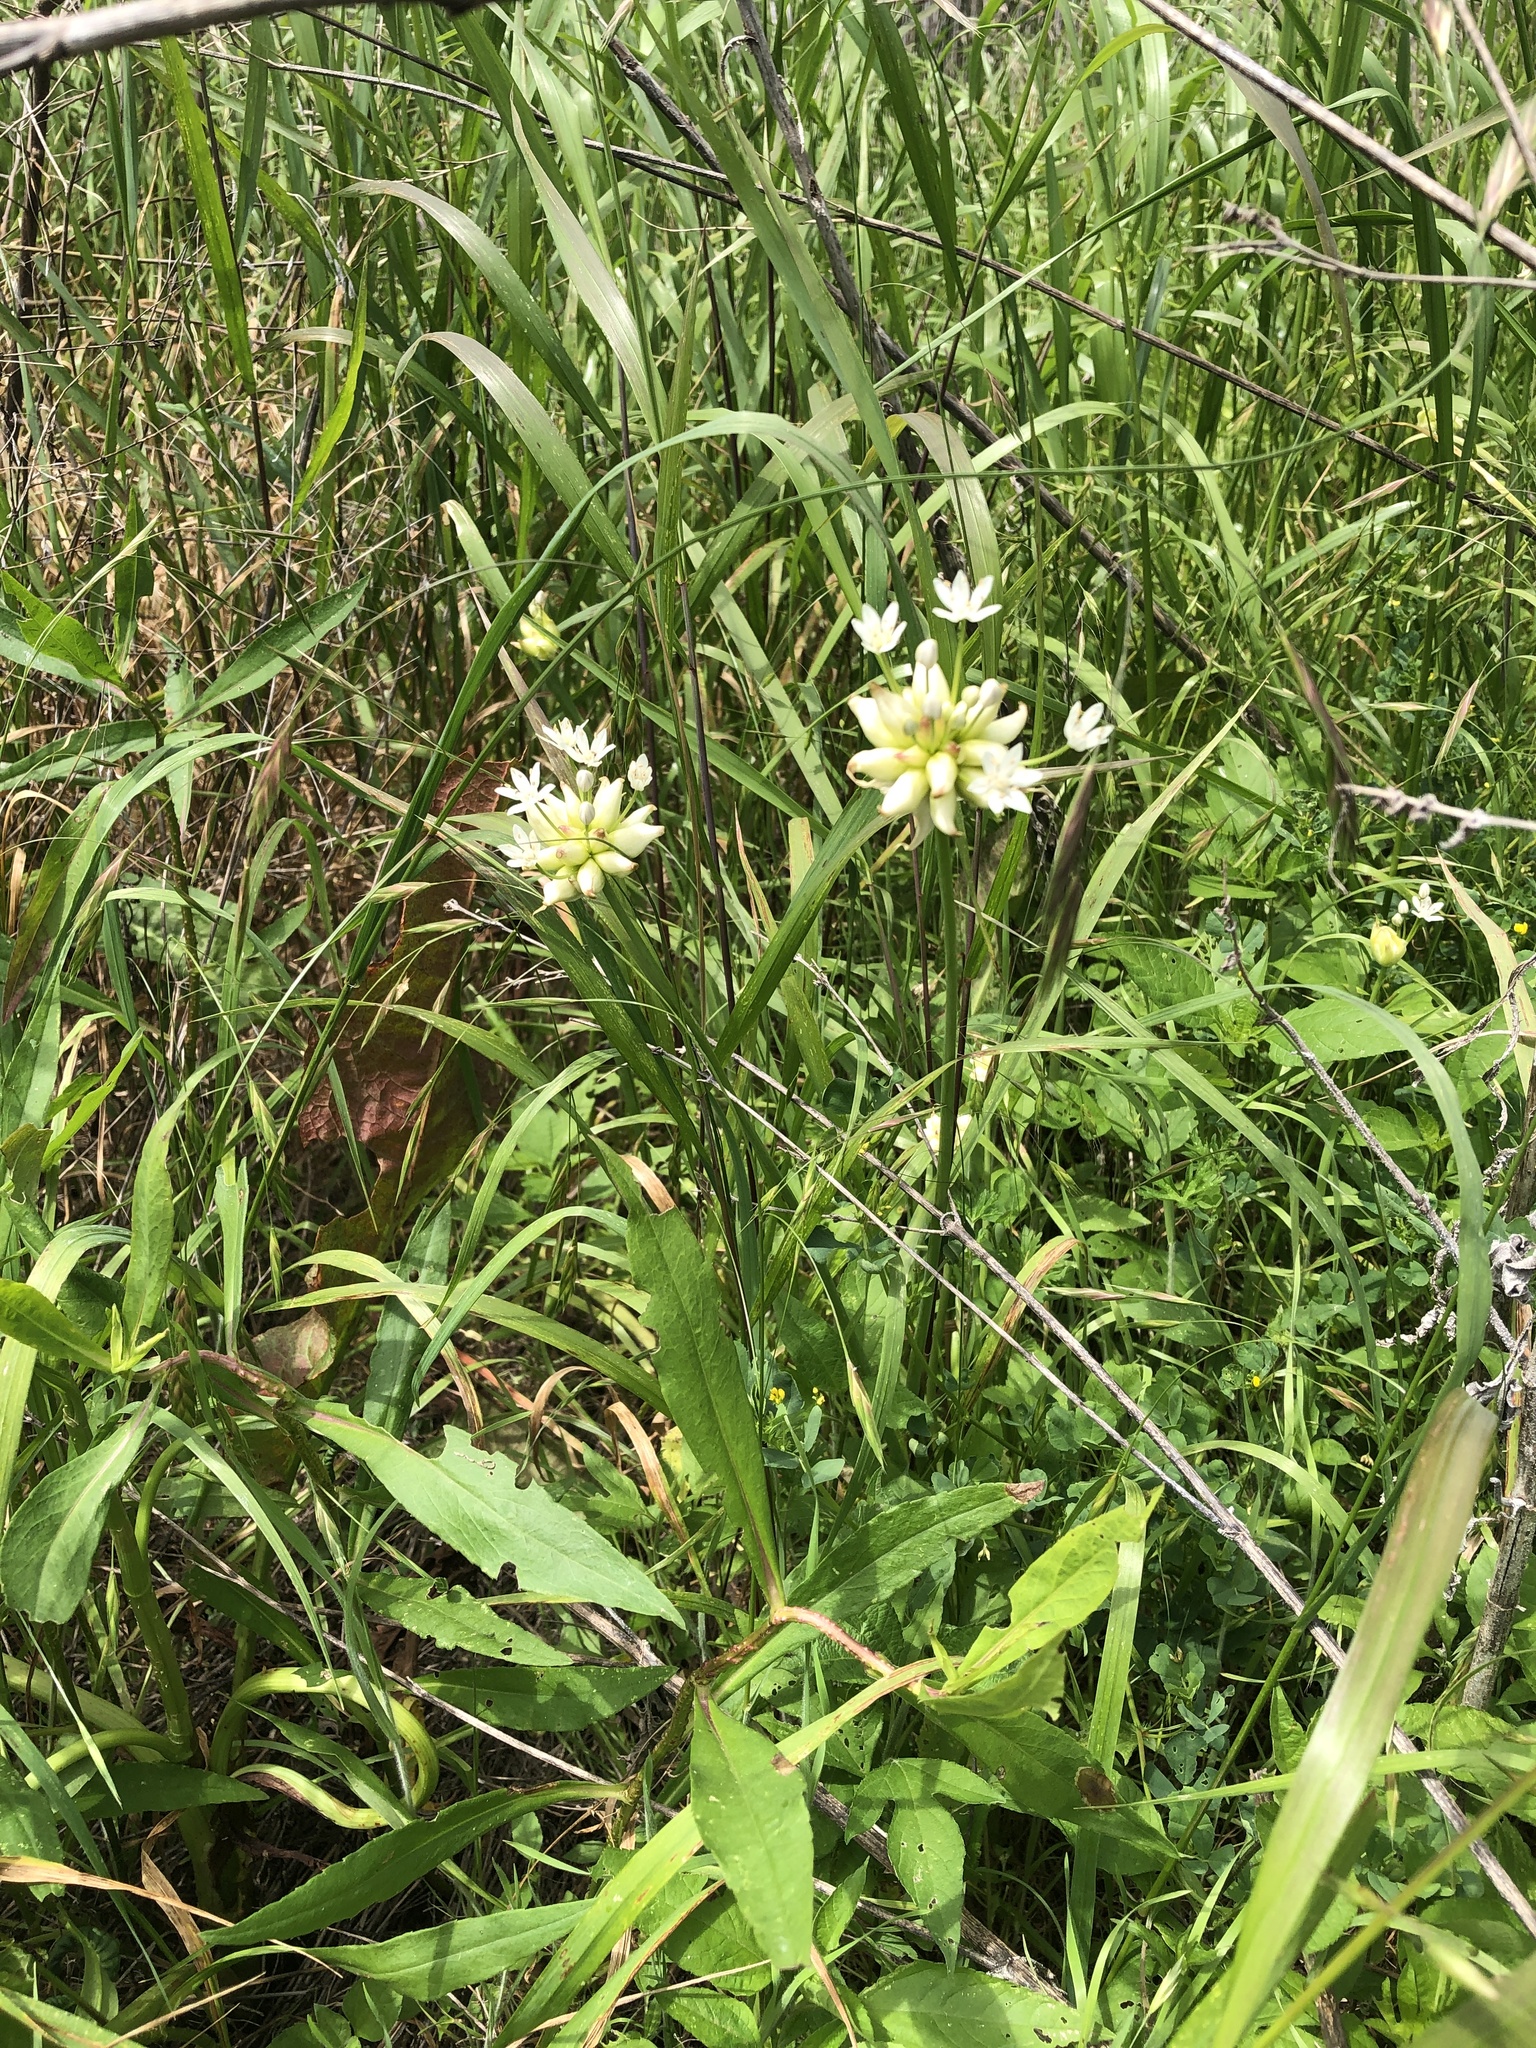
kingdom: Plantae
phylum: Tracheophyta
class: Liliopsida
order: Asparagales
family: Amaryllidaceae
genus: Allium
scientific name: Allium canadense
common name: Meadow garlic
